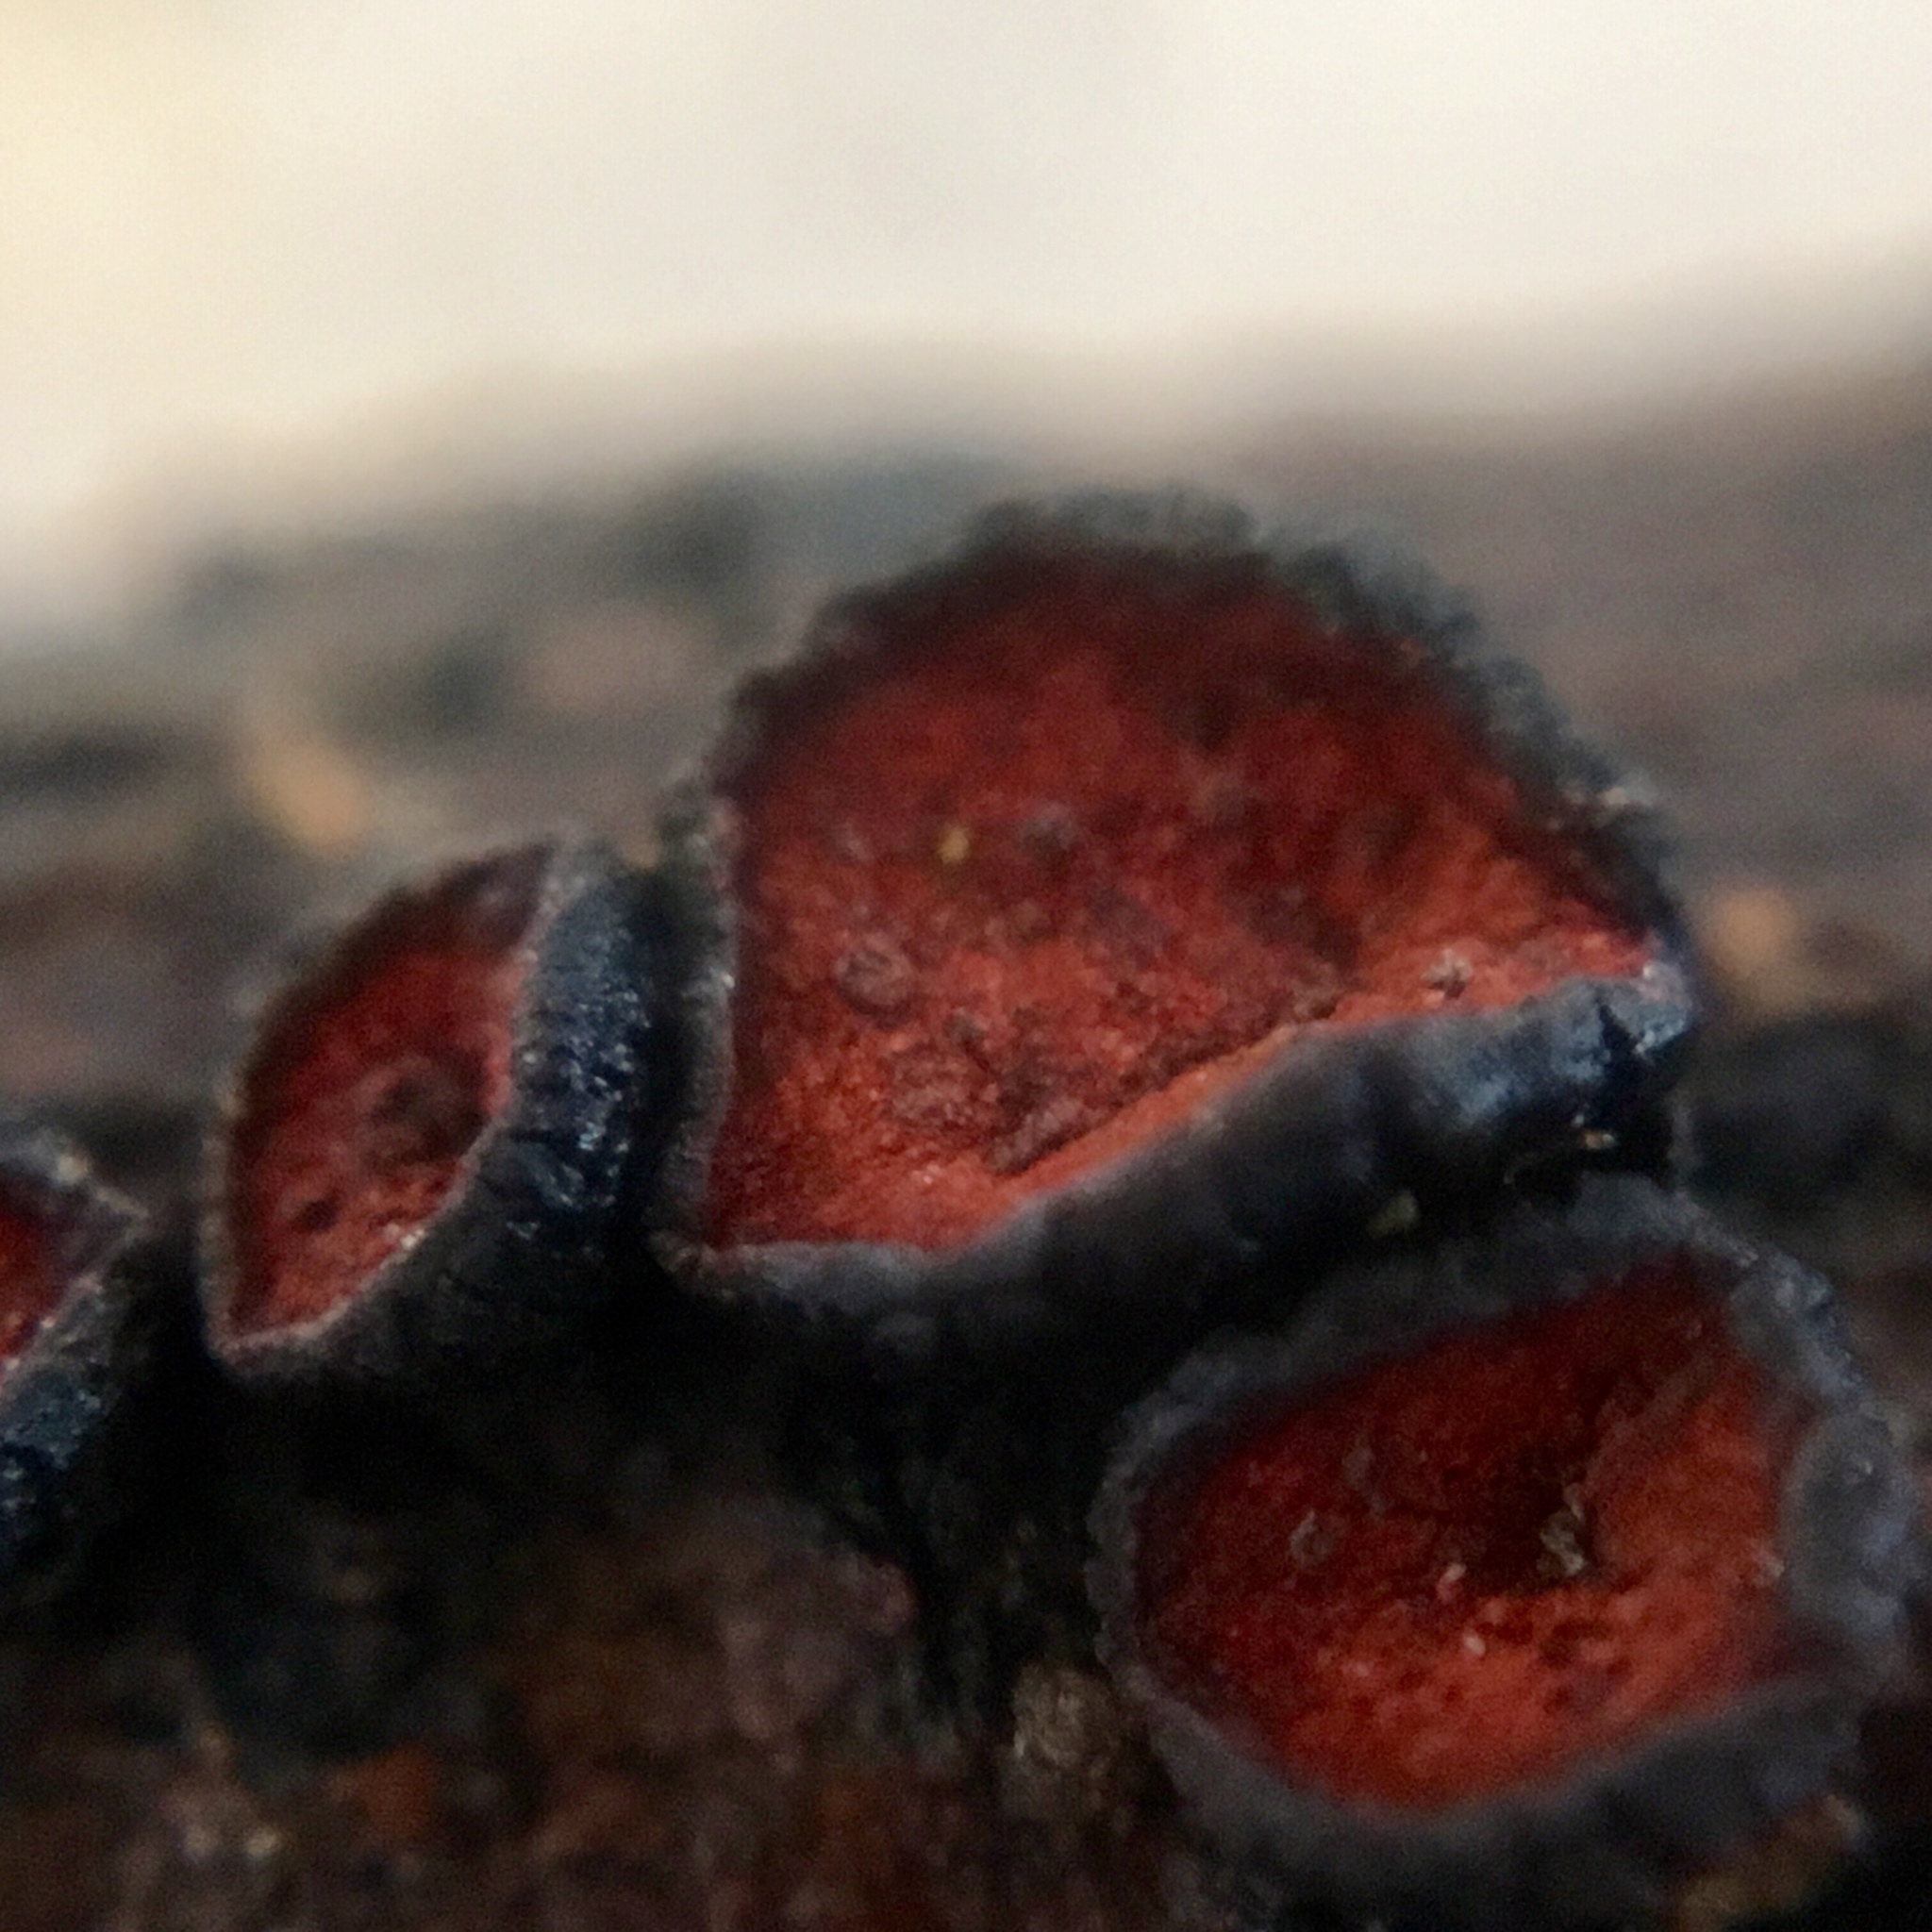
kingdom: Fungi
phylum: Ascomycota
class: Dothideomycetes
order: Patellariales
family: Patellariaceae
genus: Rhytidhysteron
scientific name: Rhytidhysteron rufulum
